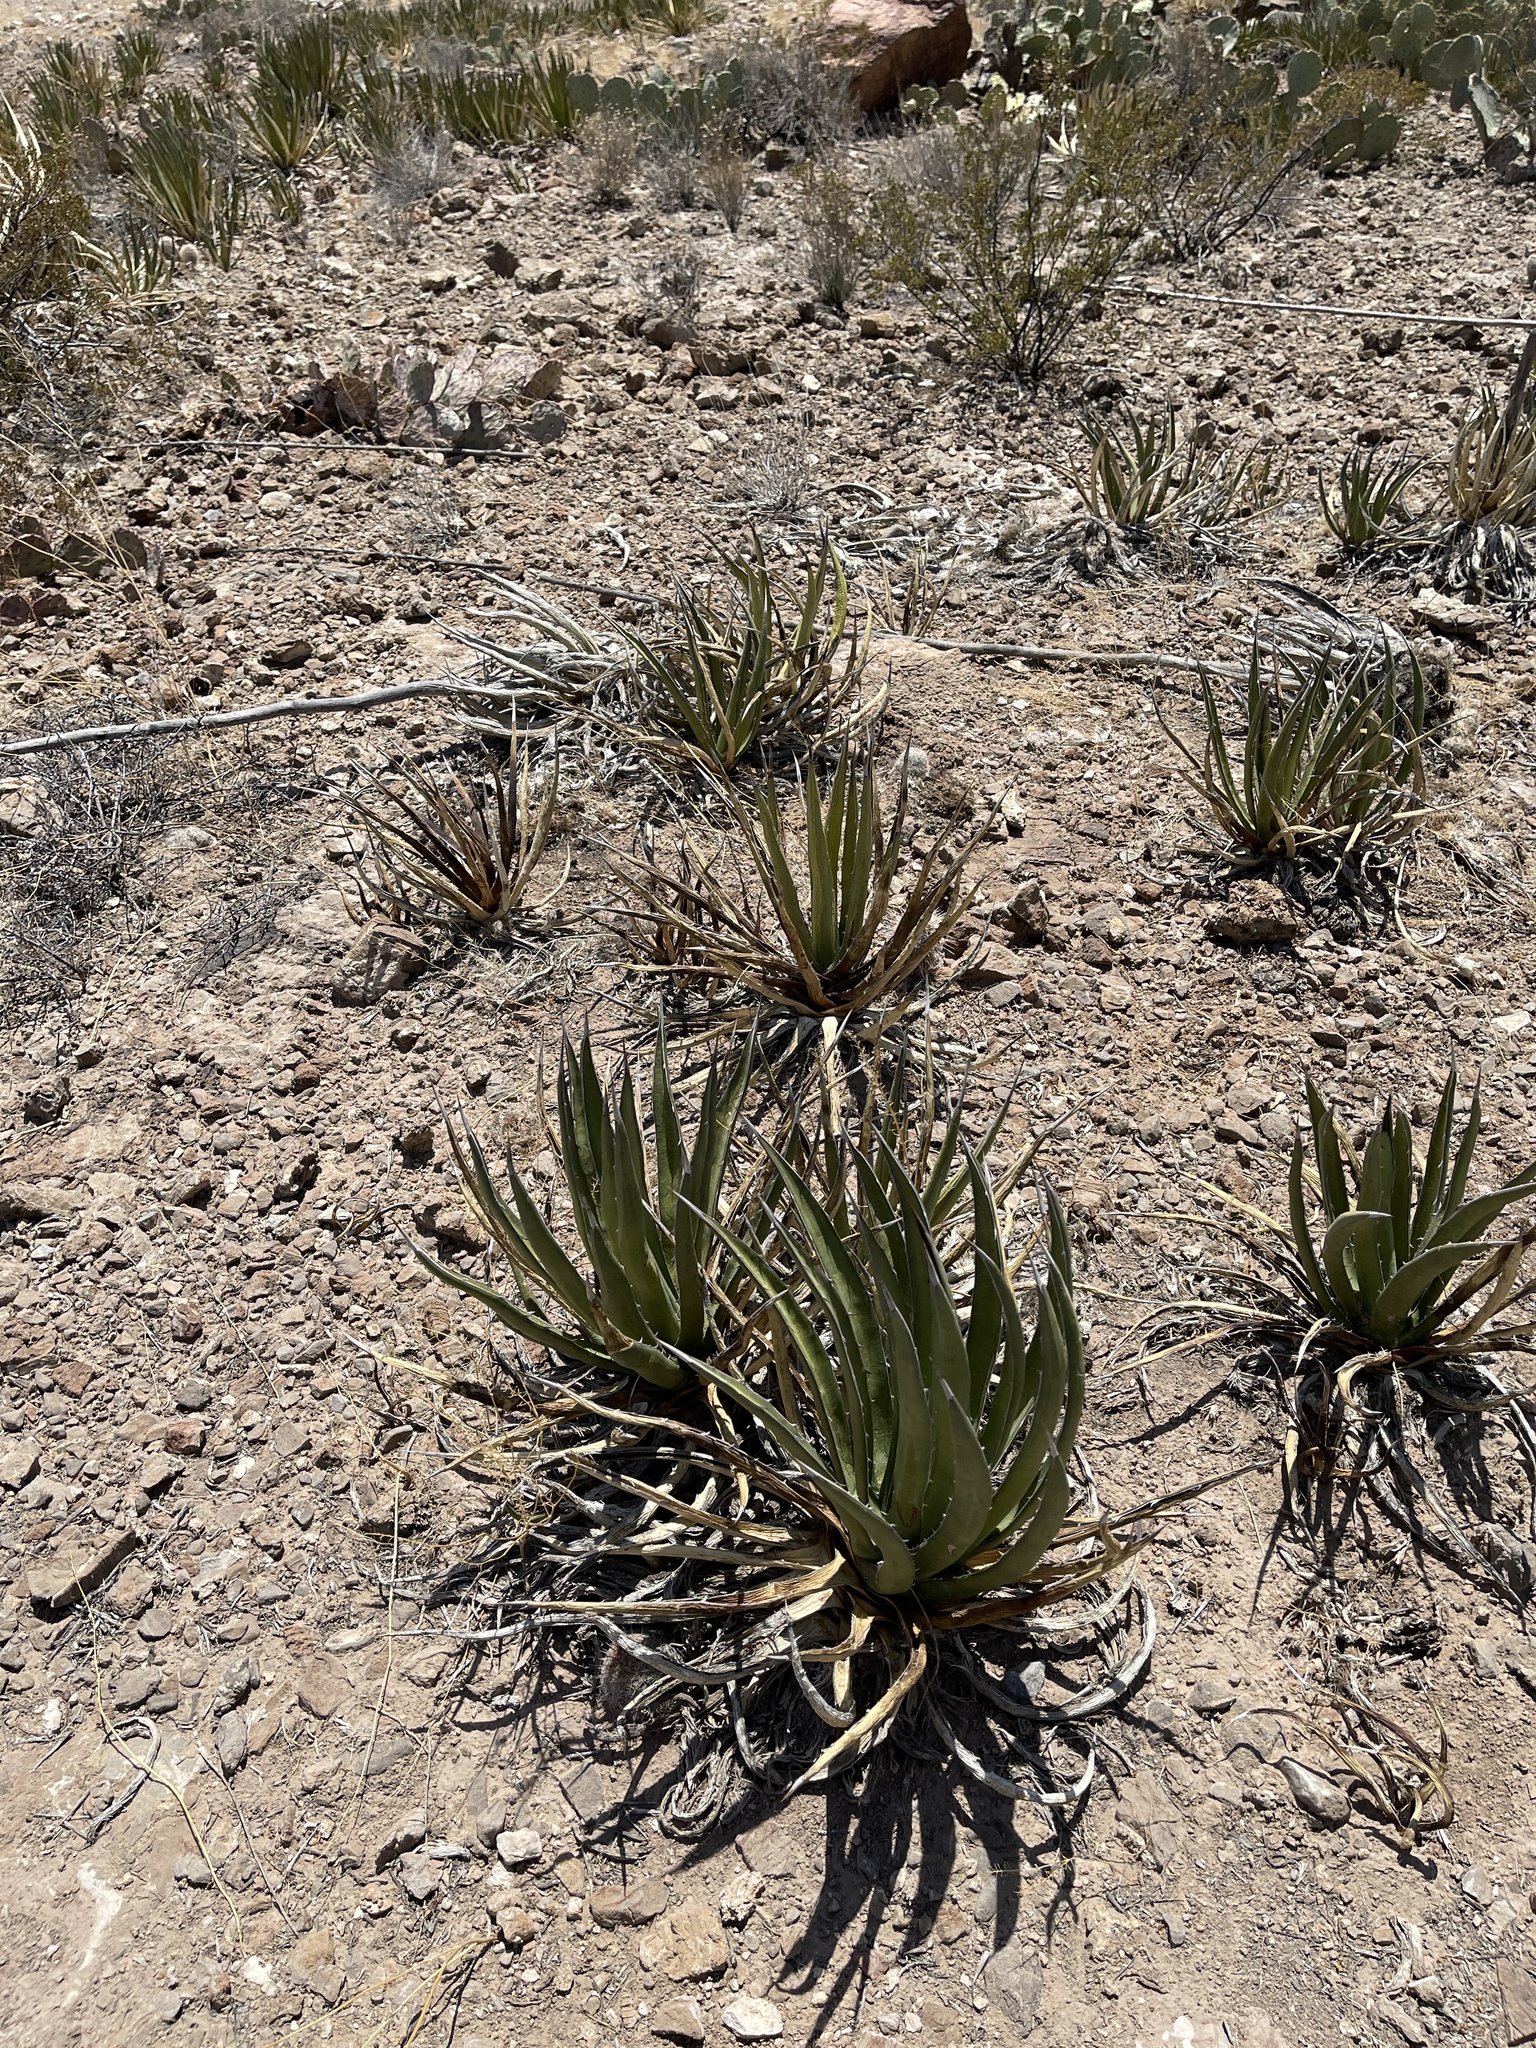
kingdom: Plantae
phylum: Tracheophyta
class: Liliopsida
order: Asparagales
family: Asparagaceae
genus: Agave
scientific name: Agave lechuguilla
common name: Lecheguilla agave
